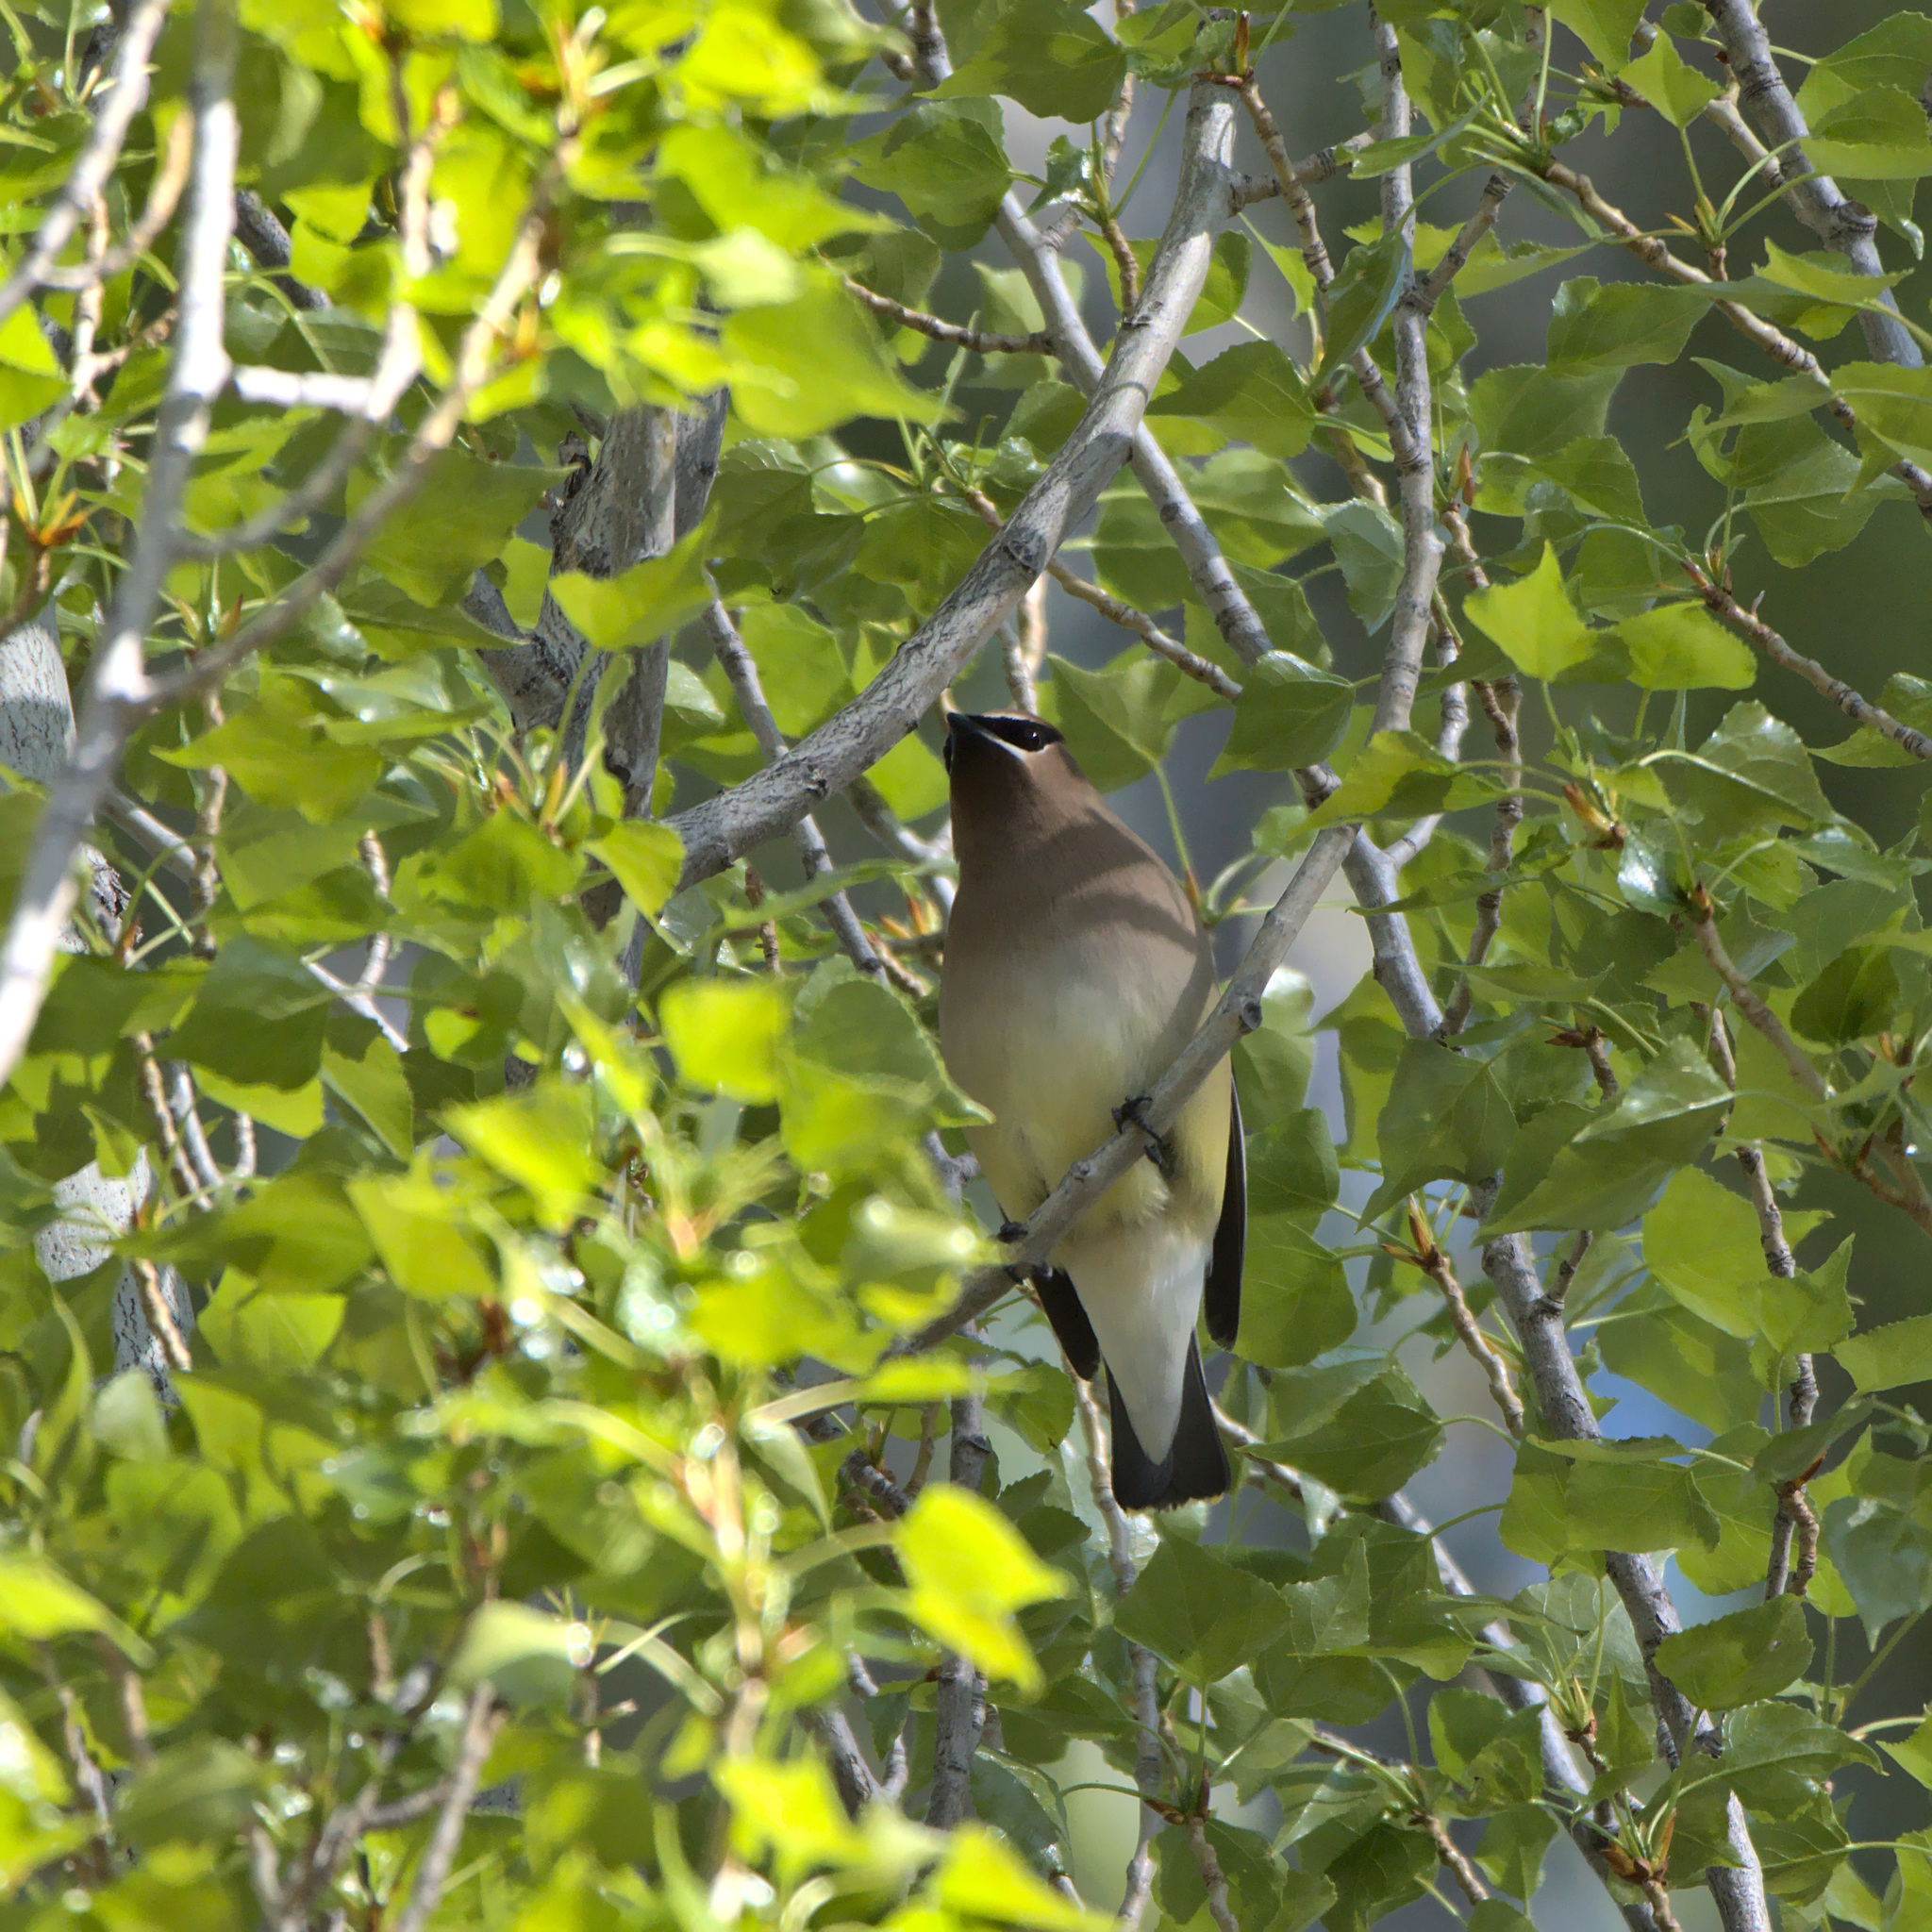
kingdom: Animalia
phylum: Chordata
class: Aves
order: Passeriformes
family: Bombycillidae
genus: Bombycilla
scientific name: Bombycilla cedrorum
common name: Cedar waxwing
